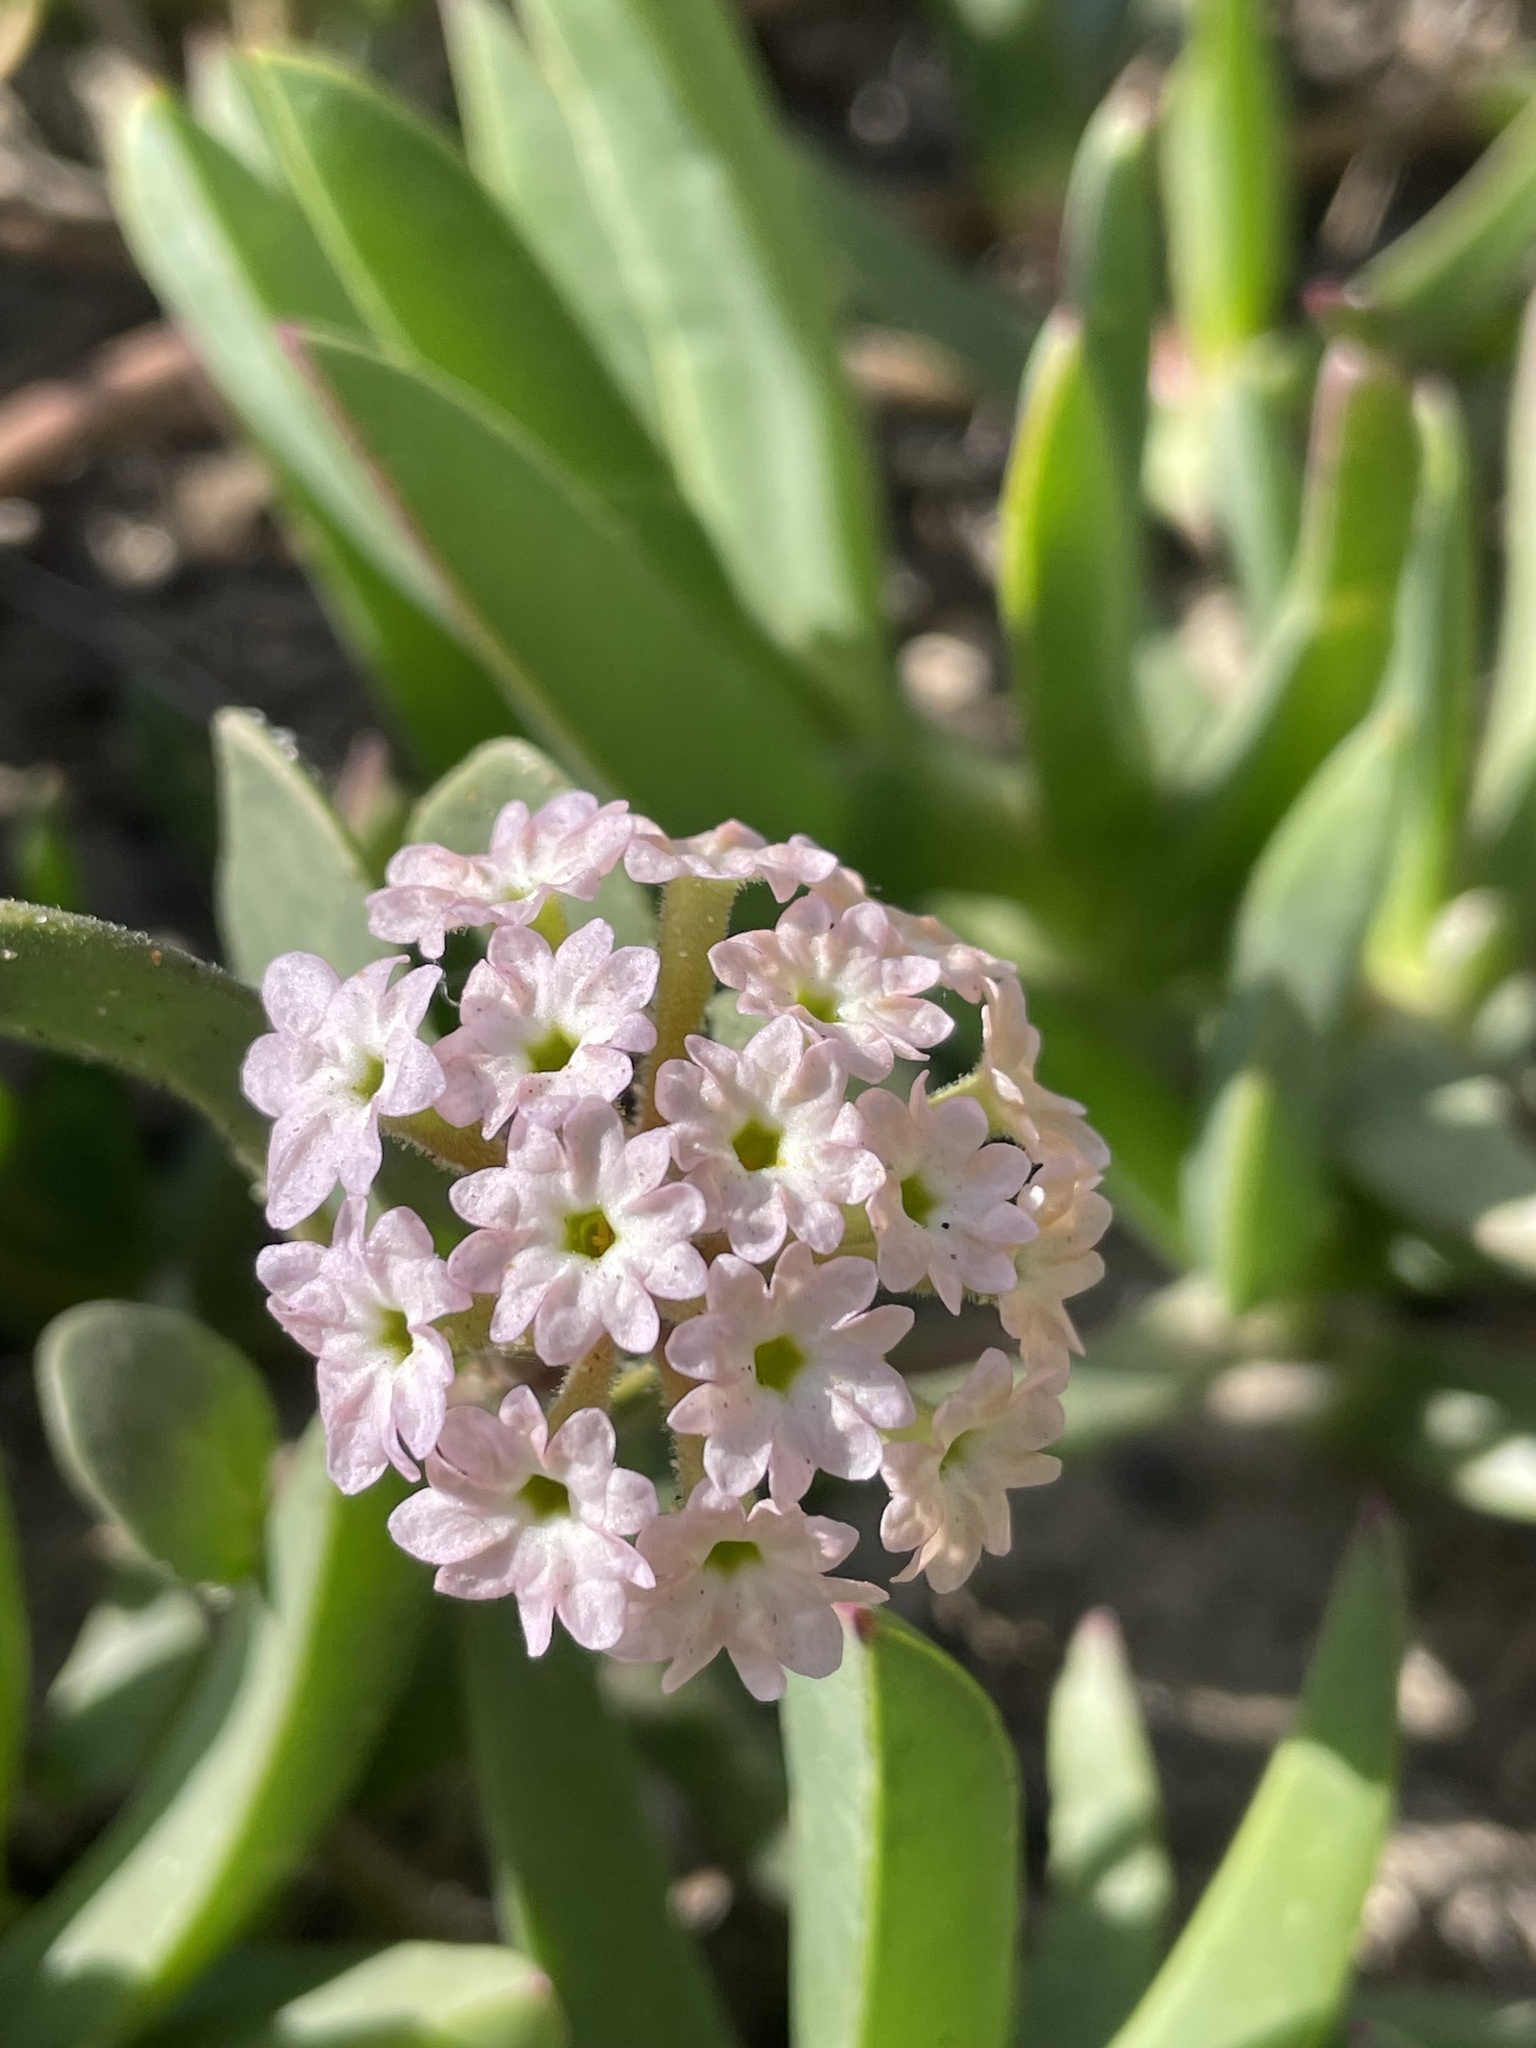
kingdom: Plantae
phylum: Tracheophyta
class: Magnoliopsida
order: Caryophyllales
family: Nyctaginaceae
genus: Abronia
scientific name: Abronia
